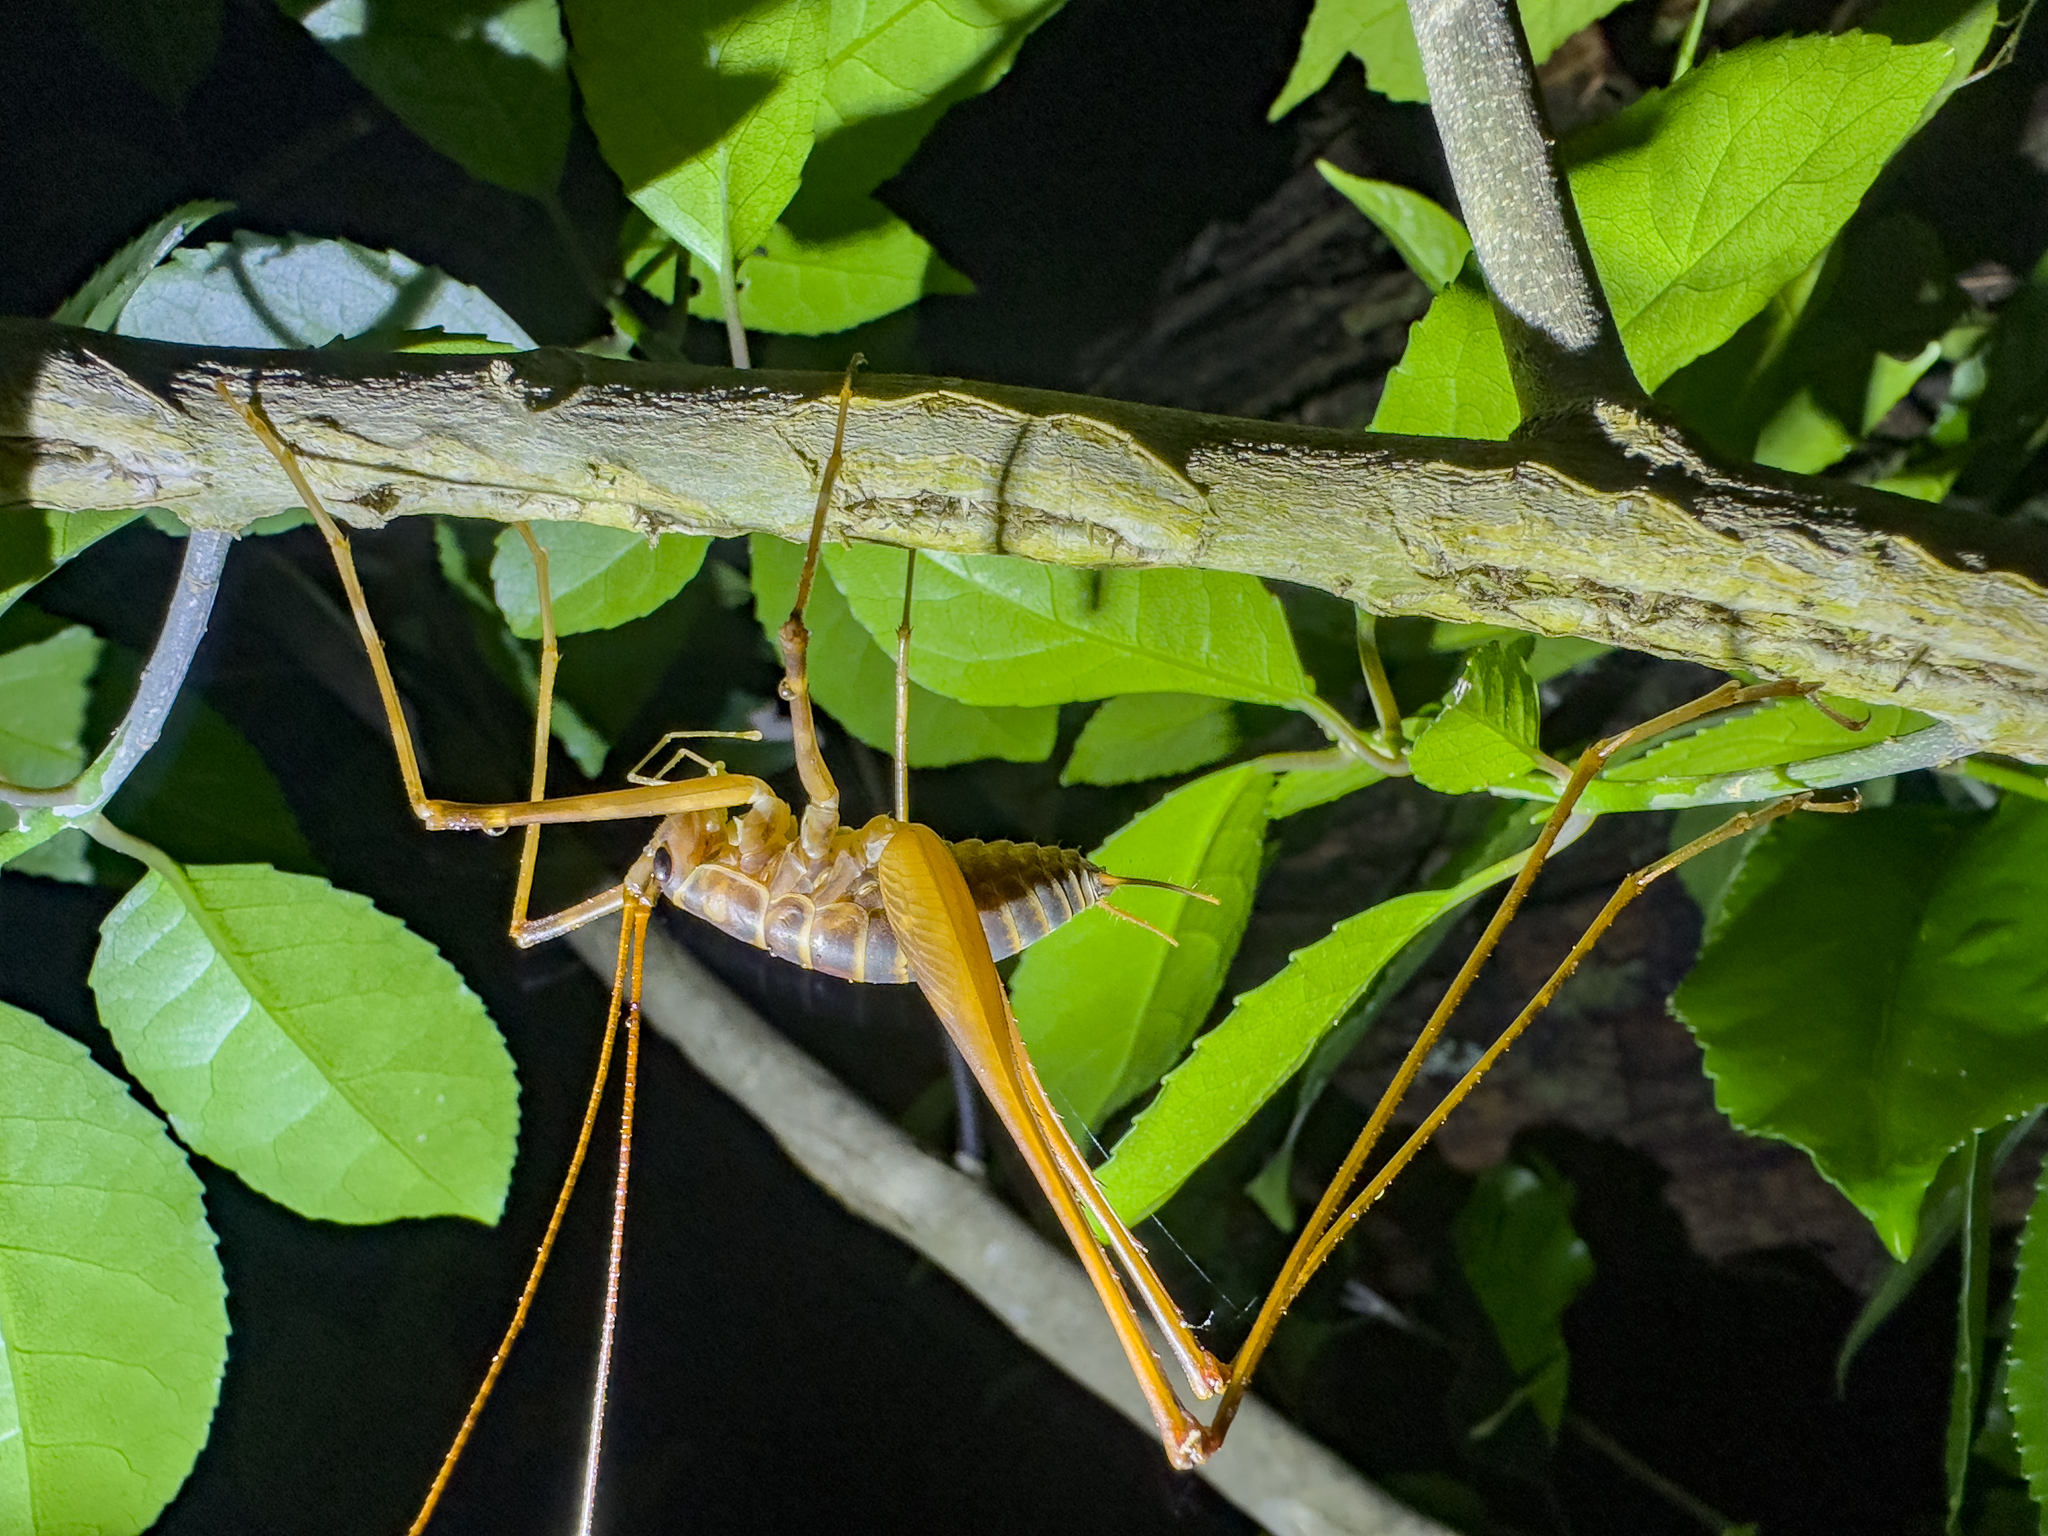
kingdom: Animalia
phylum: Arthropoda
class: Insecta
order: Orthoptera
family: Rhaphidophoridae
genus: Pachyrhamma
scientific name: Pachyrhamma acanthocera
